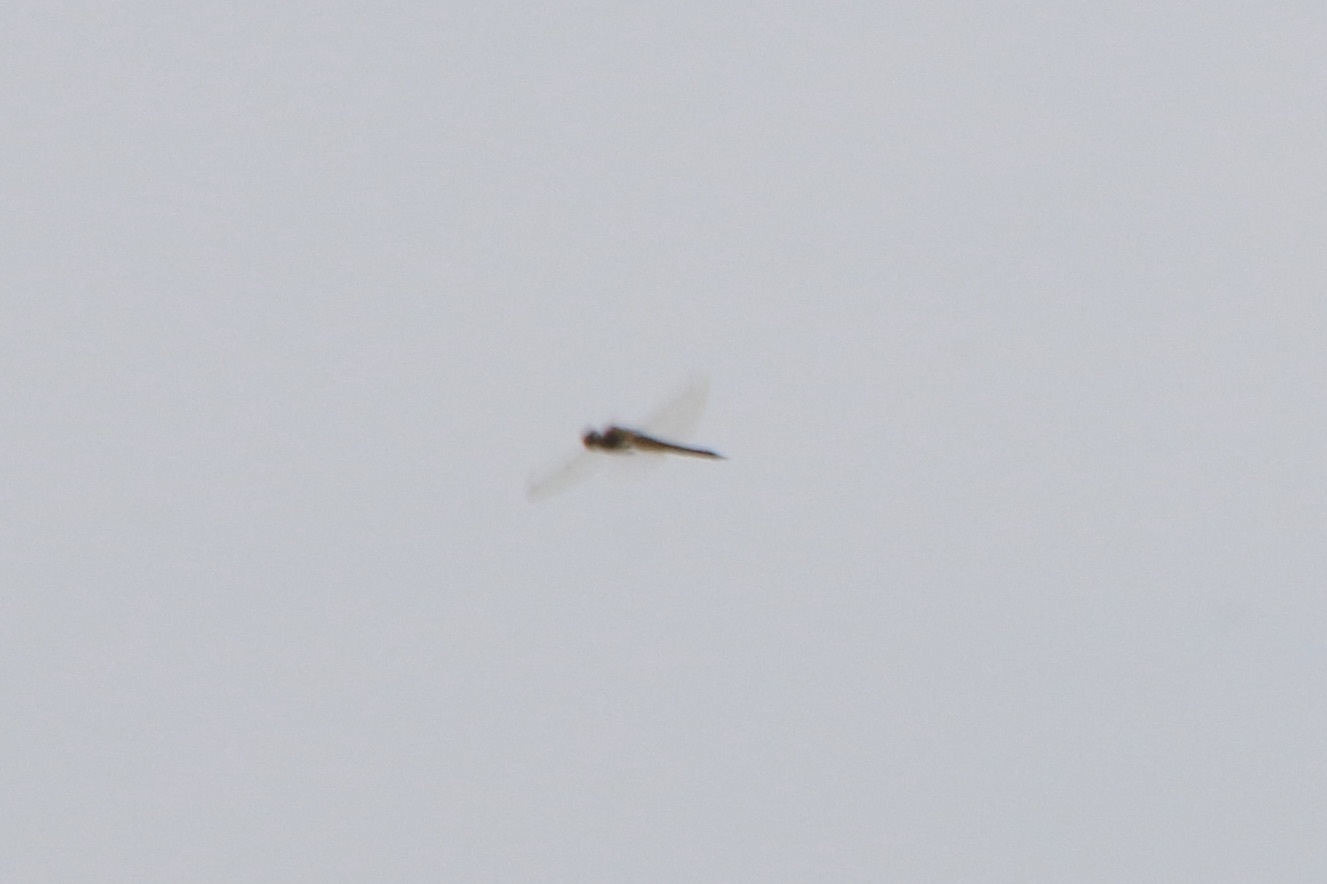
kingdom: Animalia
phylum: Arthropoda
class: Insecta
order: Odonata
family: Libellulidae
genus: Pantala
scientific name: Pantala flavescens
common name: Wandering glider
